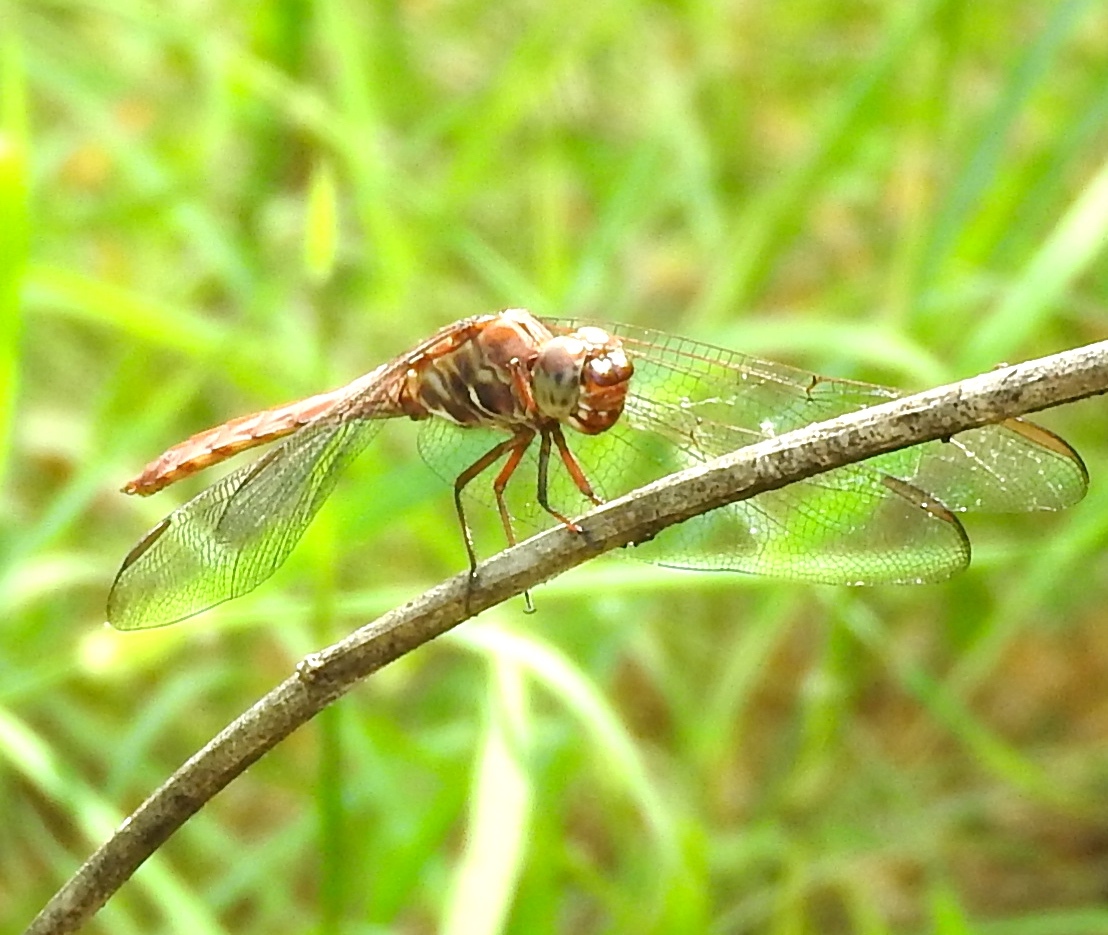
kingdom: Animalia
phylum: Arthropoda
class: Insecta
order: Odonata
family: Libellulidae
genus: Orthemis
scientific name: Orthemis
